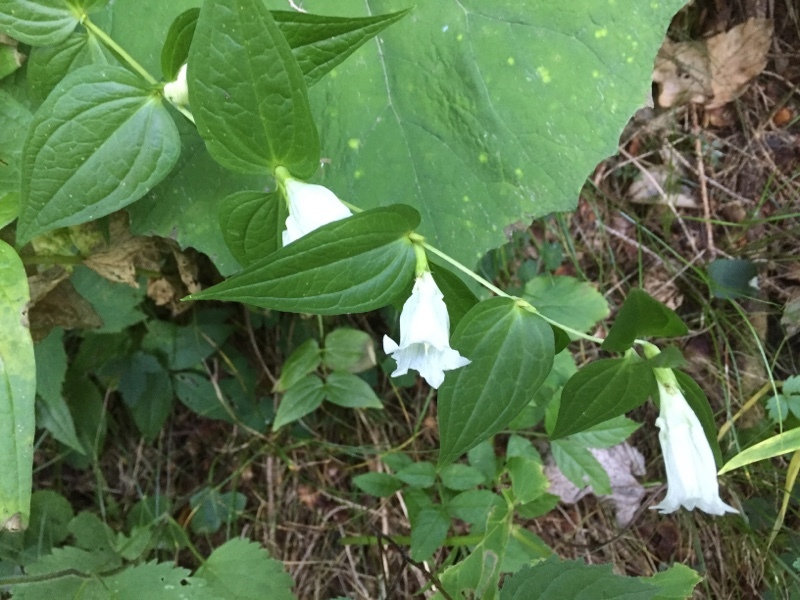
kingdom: Plantae
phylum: Tracheophyta
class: Magnoliopsida
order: Gentianales
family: Gentianaceae
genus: Gentiana
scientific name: Gentiana asclepiadea
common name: Willow gentian
